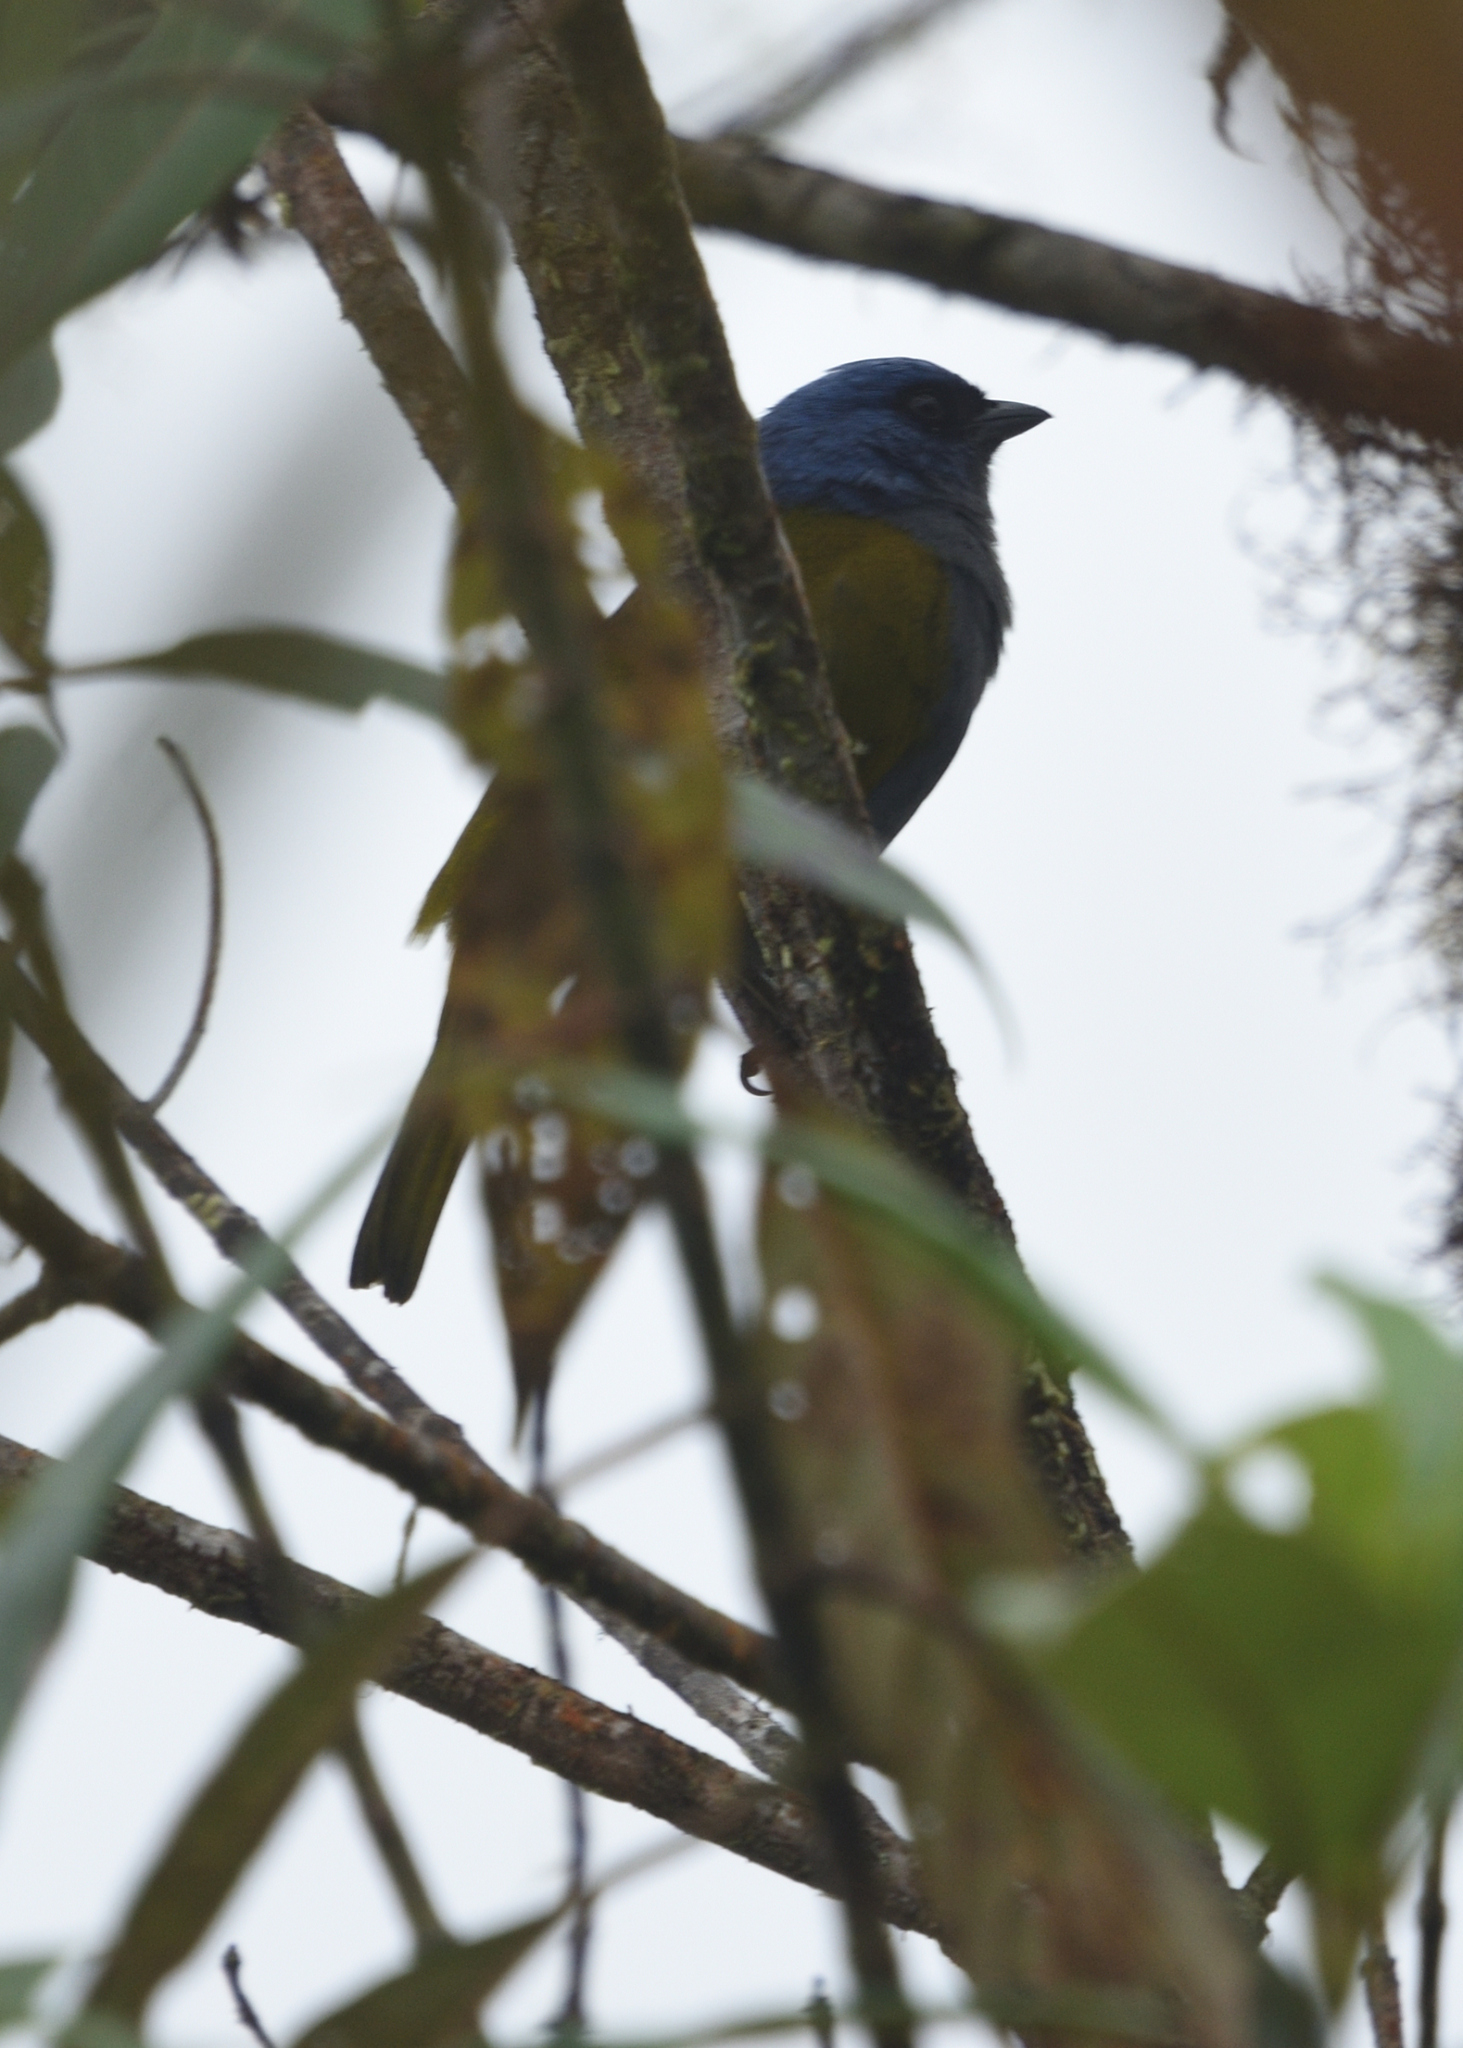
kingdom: Animalia
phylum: Chordata
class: Aves
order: Passeriformes
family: Thraupidae
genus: Sporathraupis
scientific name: Sporathraupis cyanocephala
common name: Blue-capped tanager
